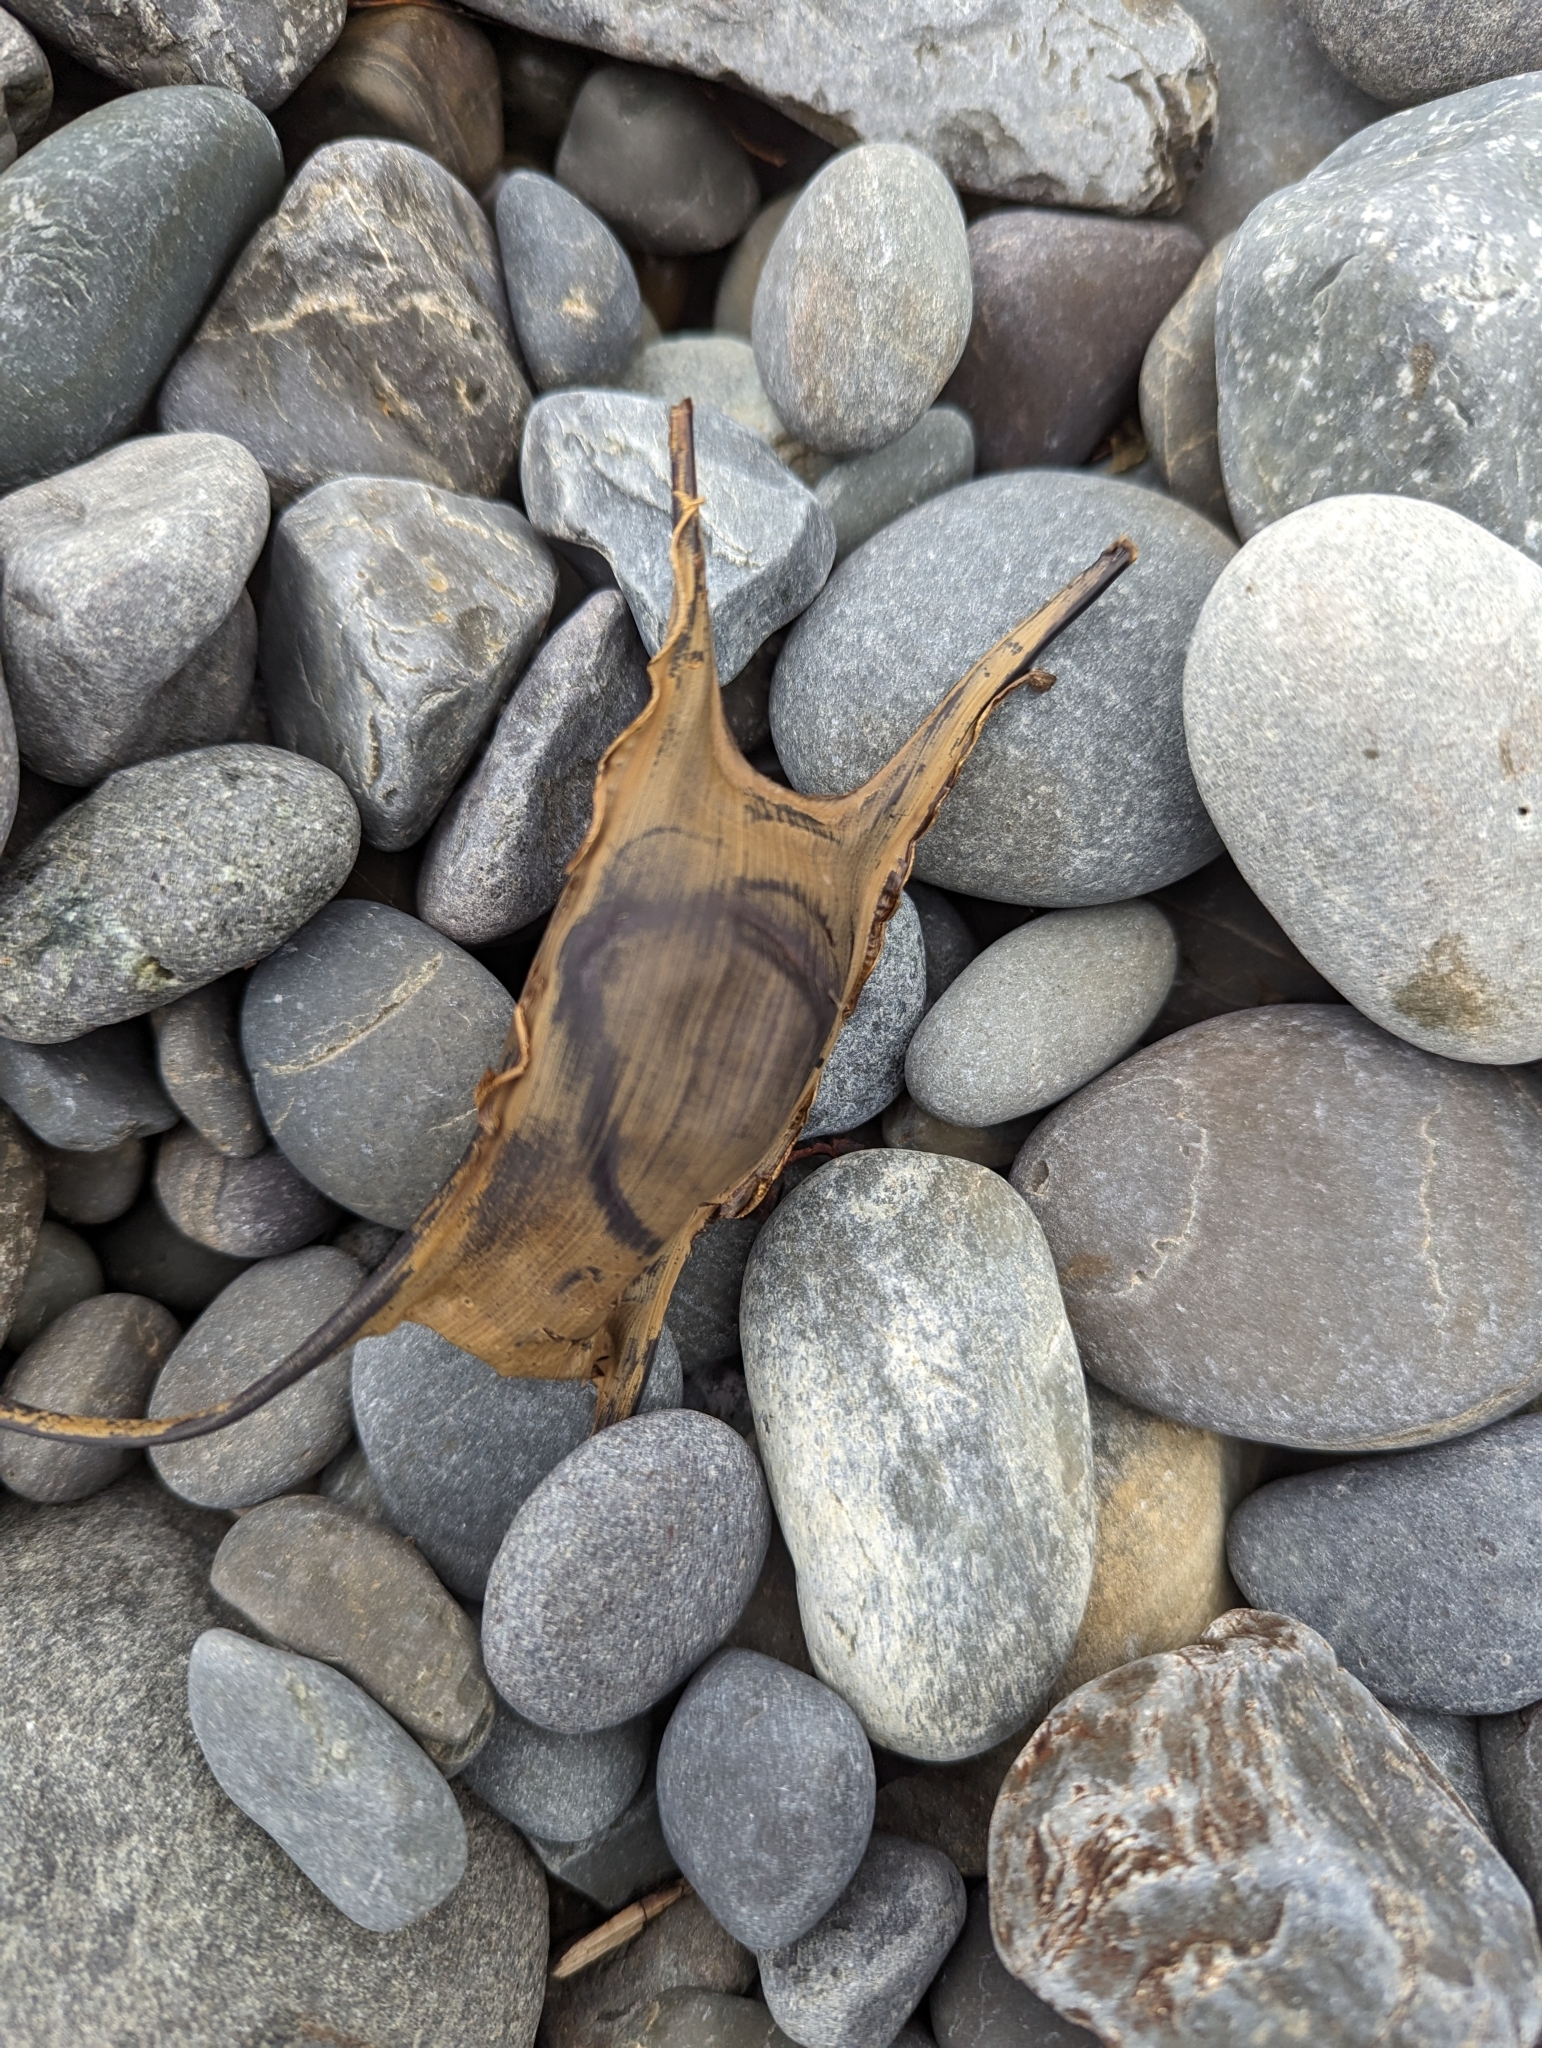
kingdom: Animalia
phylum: Chordata
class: Elasmobranchii
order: Rajiformes
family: Rajidae
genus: Leucoraja
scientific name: Leucoraja ocellata
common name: Winter skate
